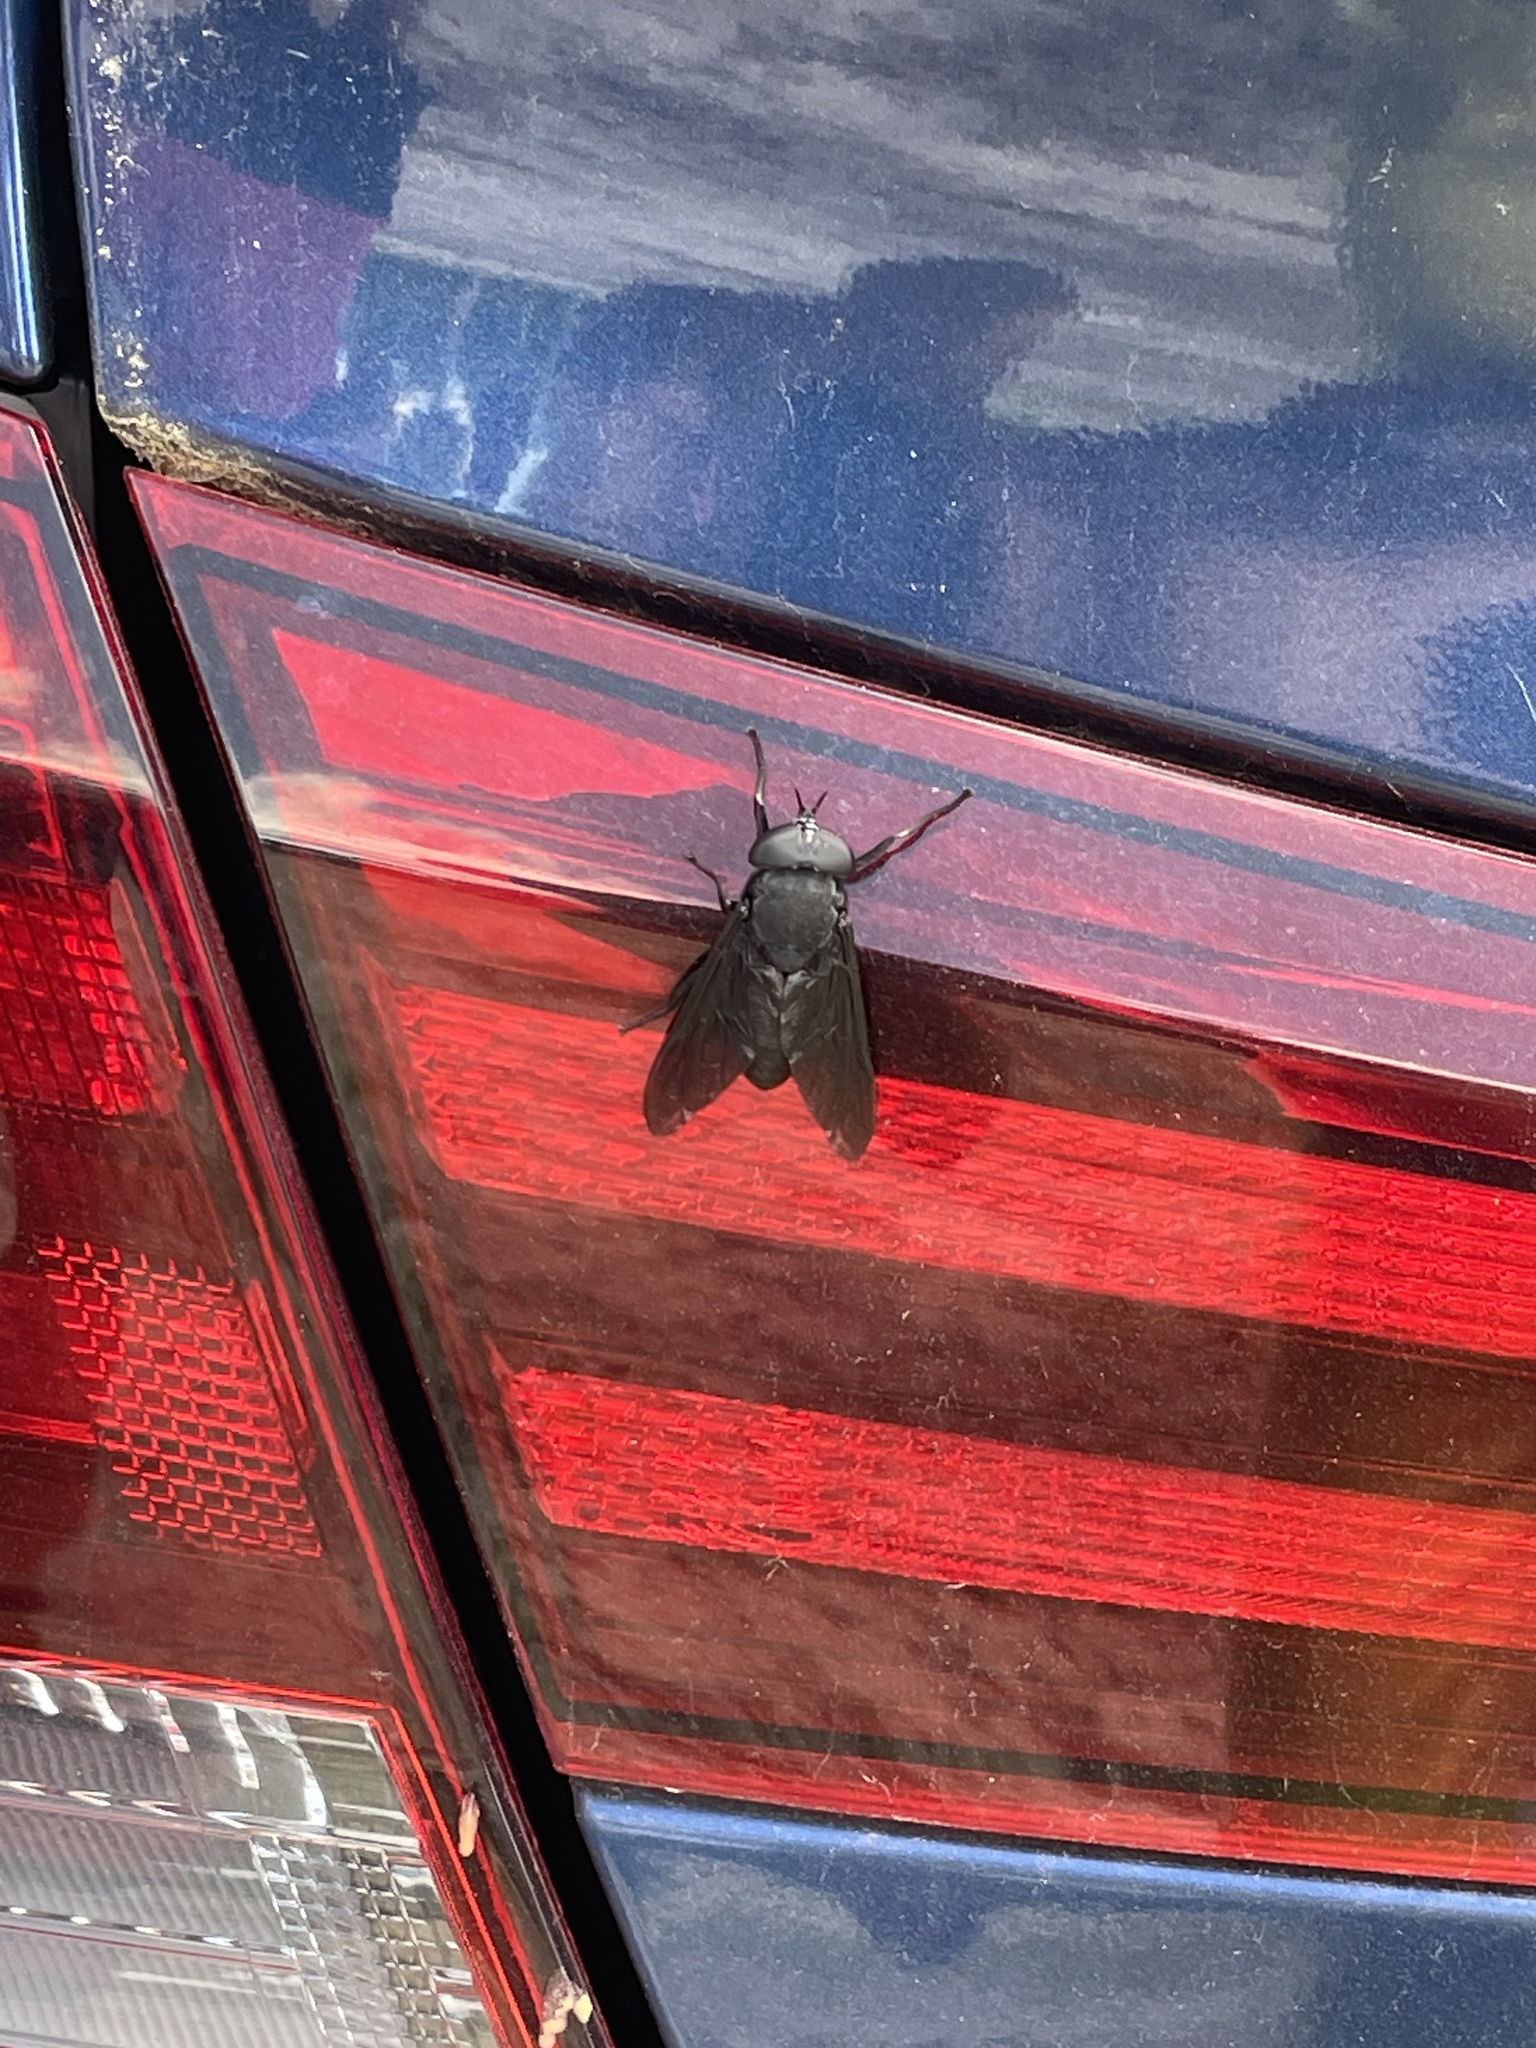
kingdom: Animalia
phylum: Arthropoda
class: Insecta
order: Diptera
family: Tabanidae
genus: Tabanus
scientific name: Tabanus atratus
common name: Black horse fly
